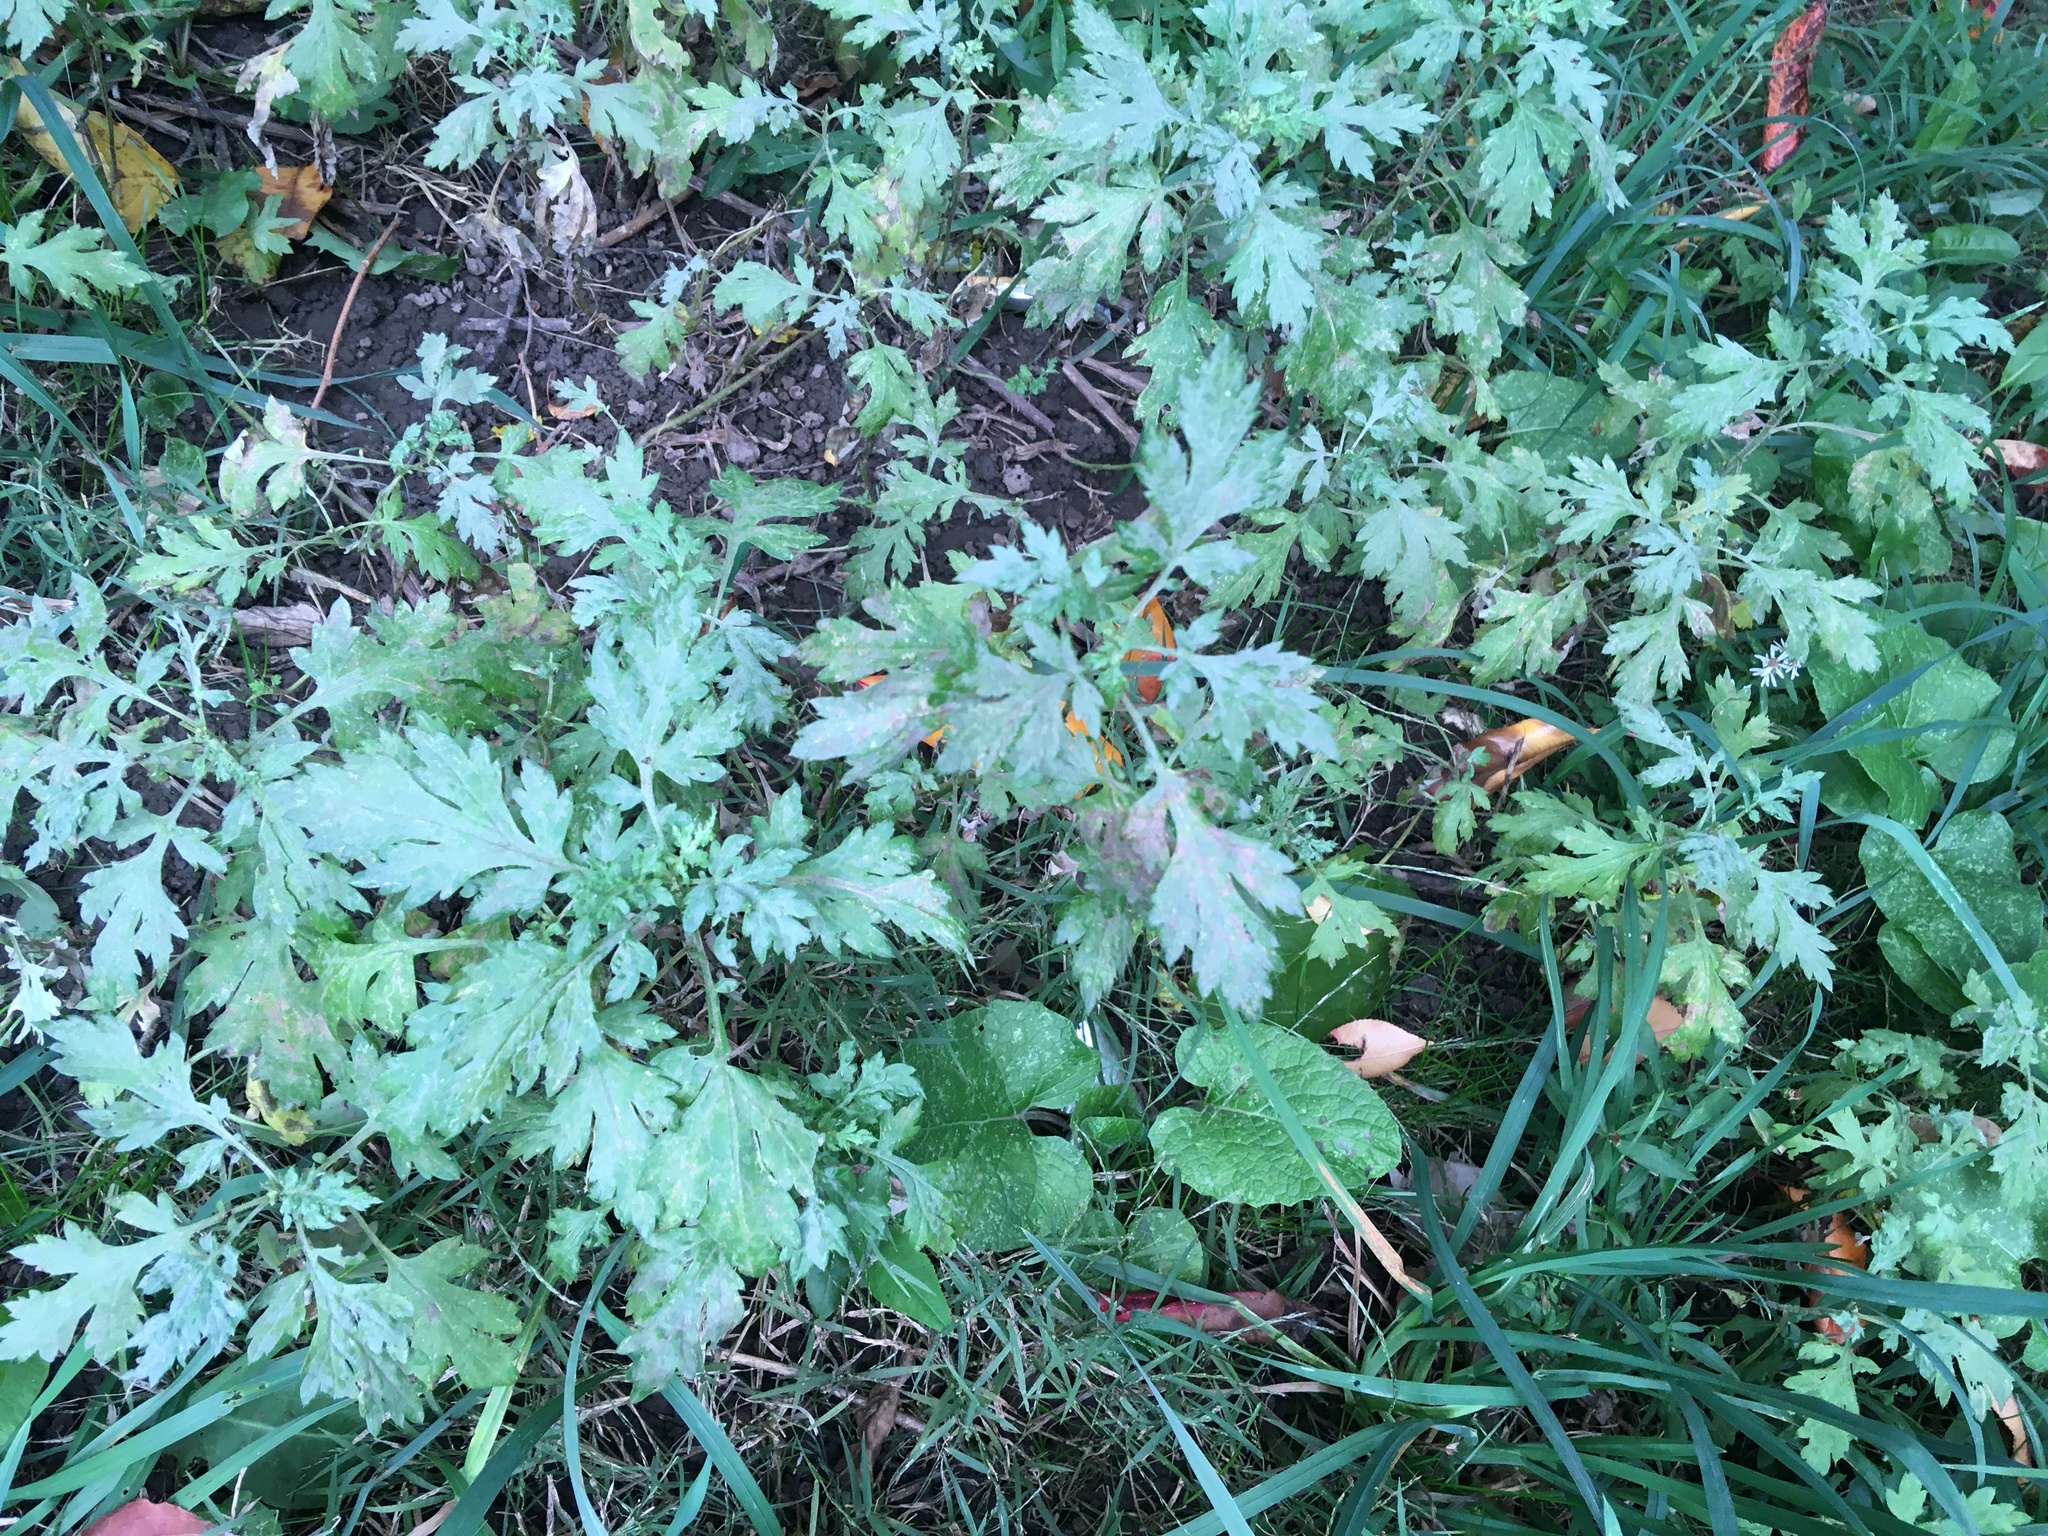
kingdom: Plantae
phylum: Tracheophyta
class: Magnoliopsida
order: Asterales
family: Asteraceae
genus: Artemisia
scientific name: Artemisia vulgaris
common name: Mugwort
